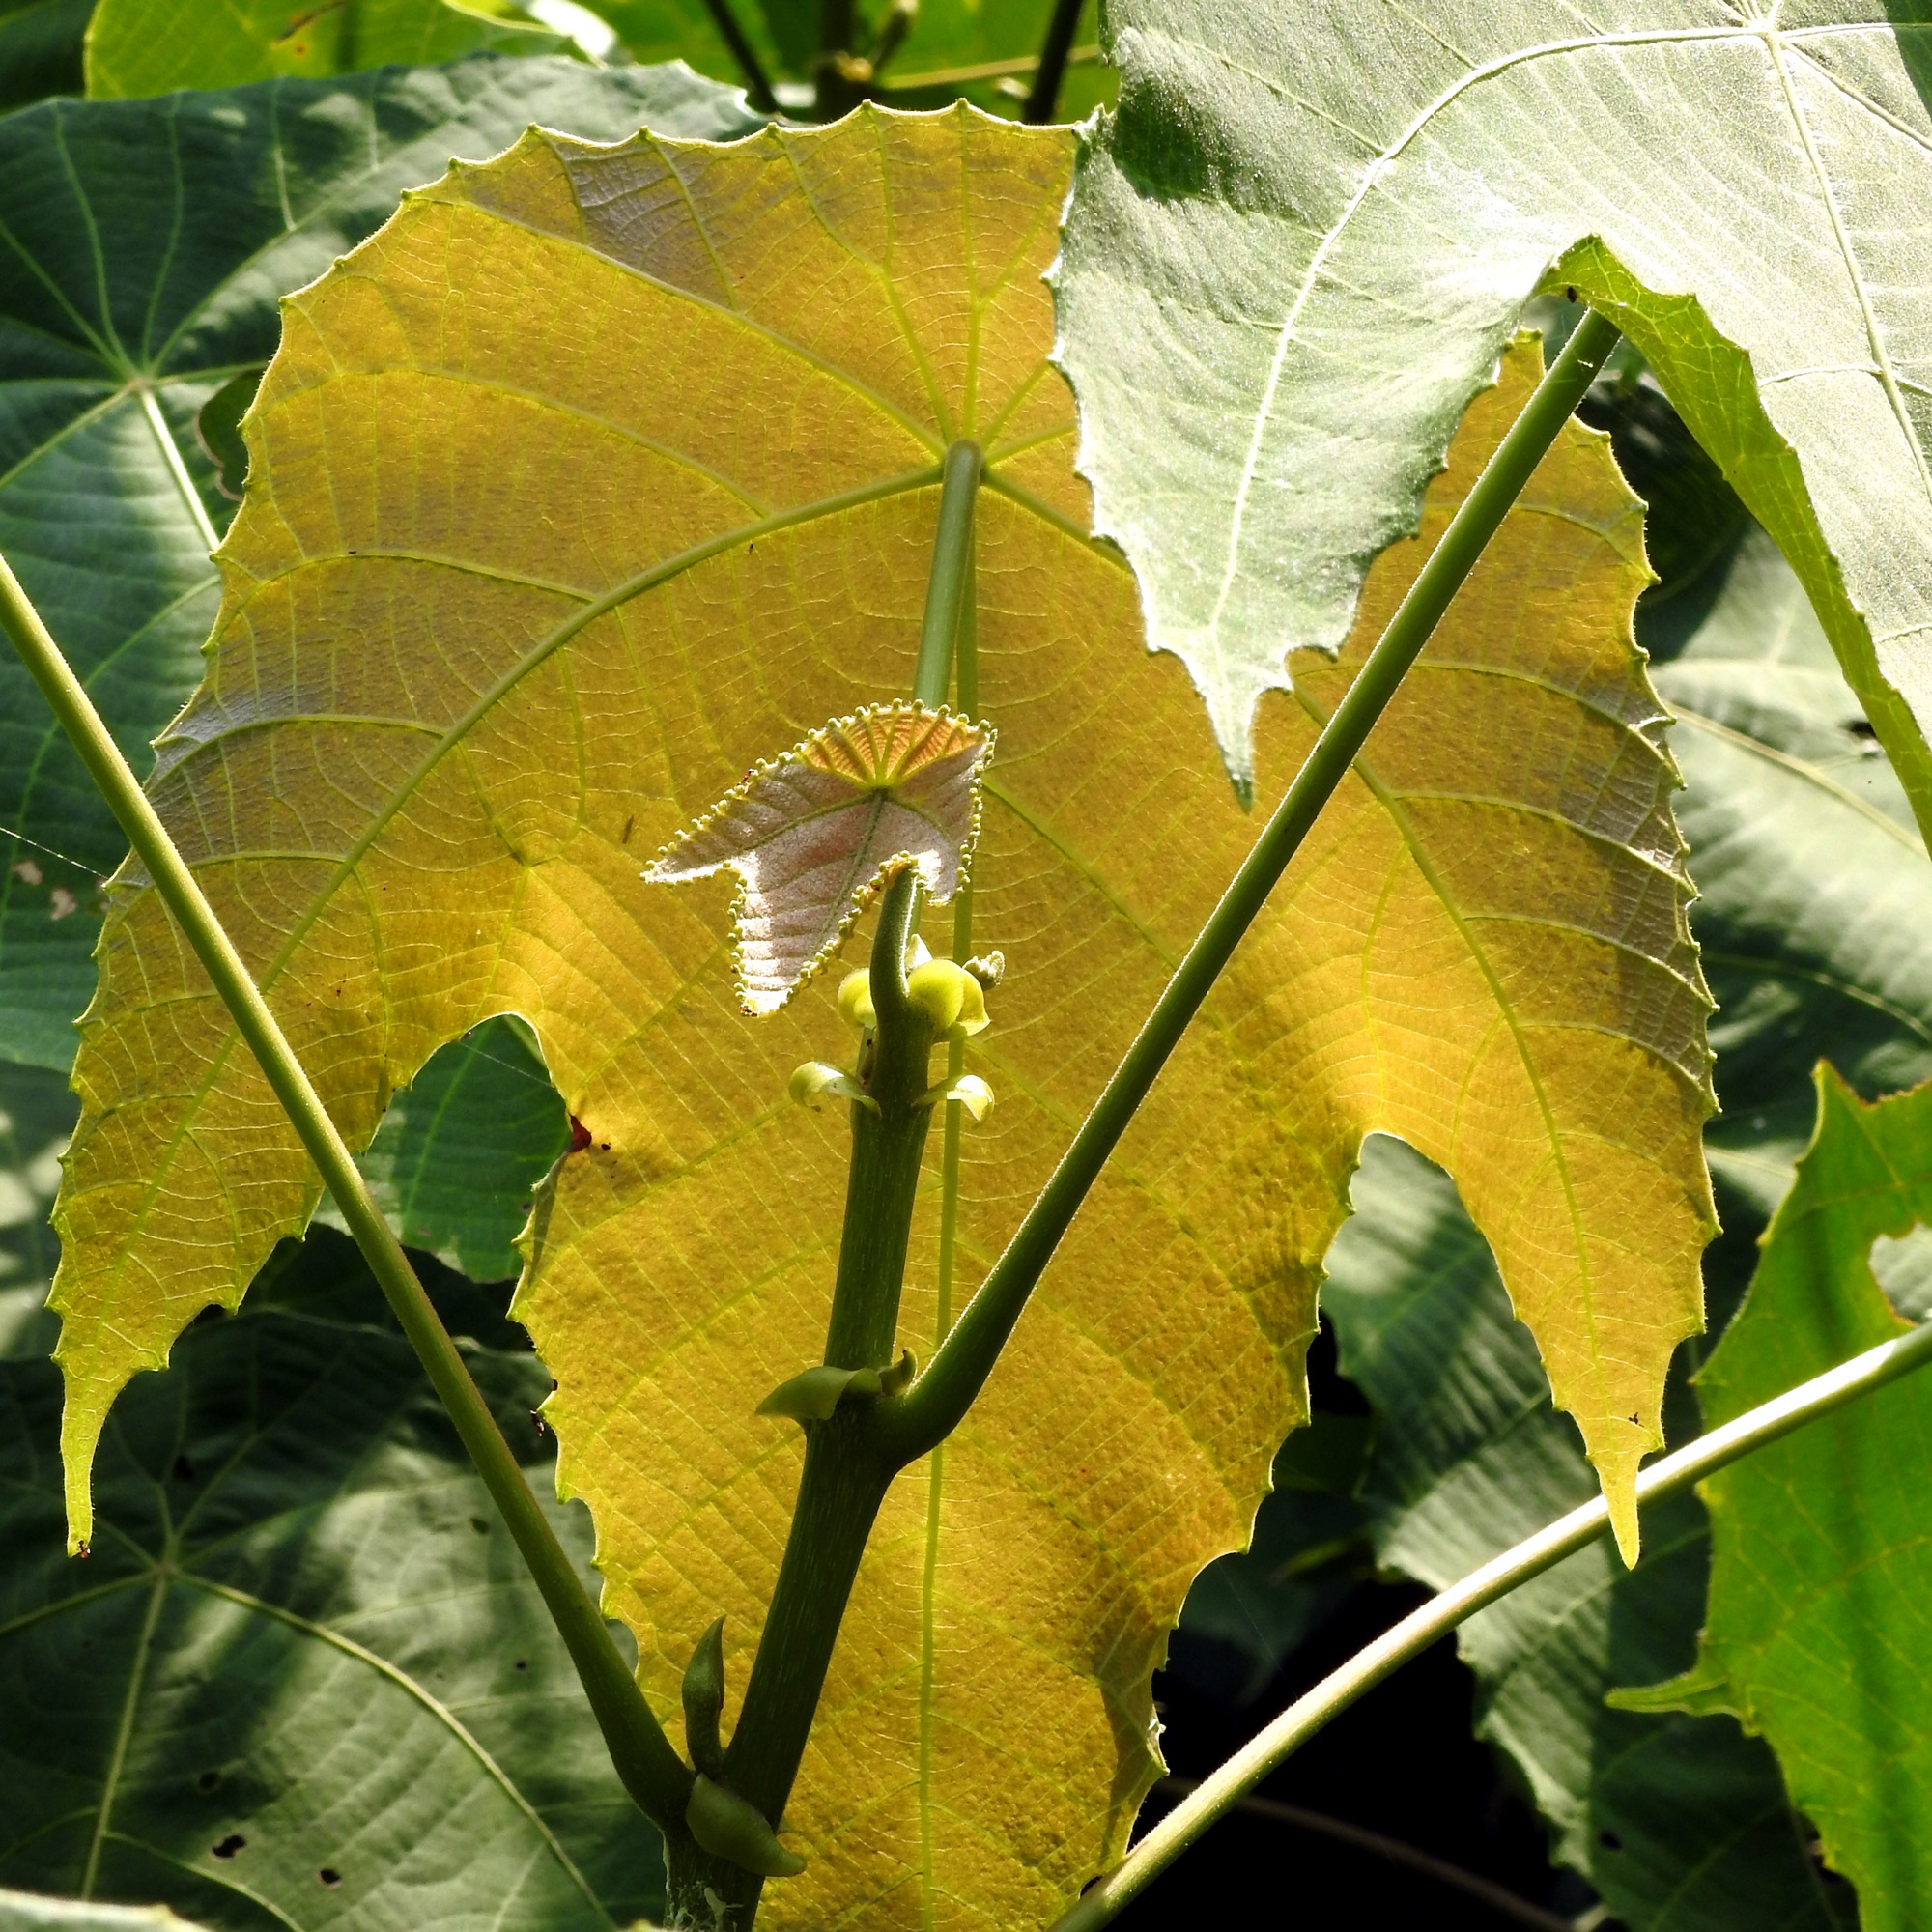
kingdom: Plantae
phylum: Tracheophyta
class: Magnoliopsida
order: Malpighiales
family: Euphorbiaceae
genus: Macaranga
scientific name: Macaranga triloba
